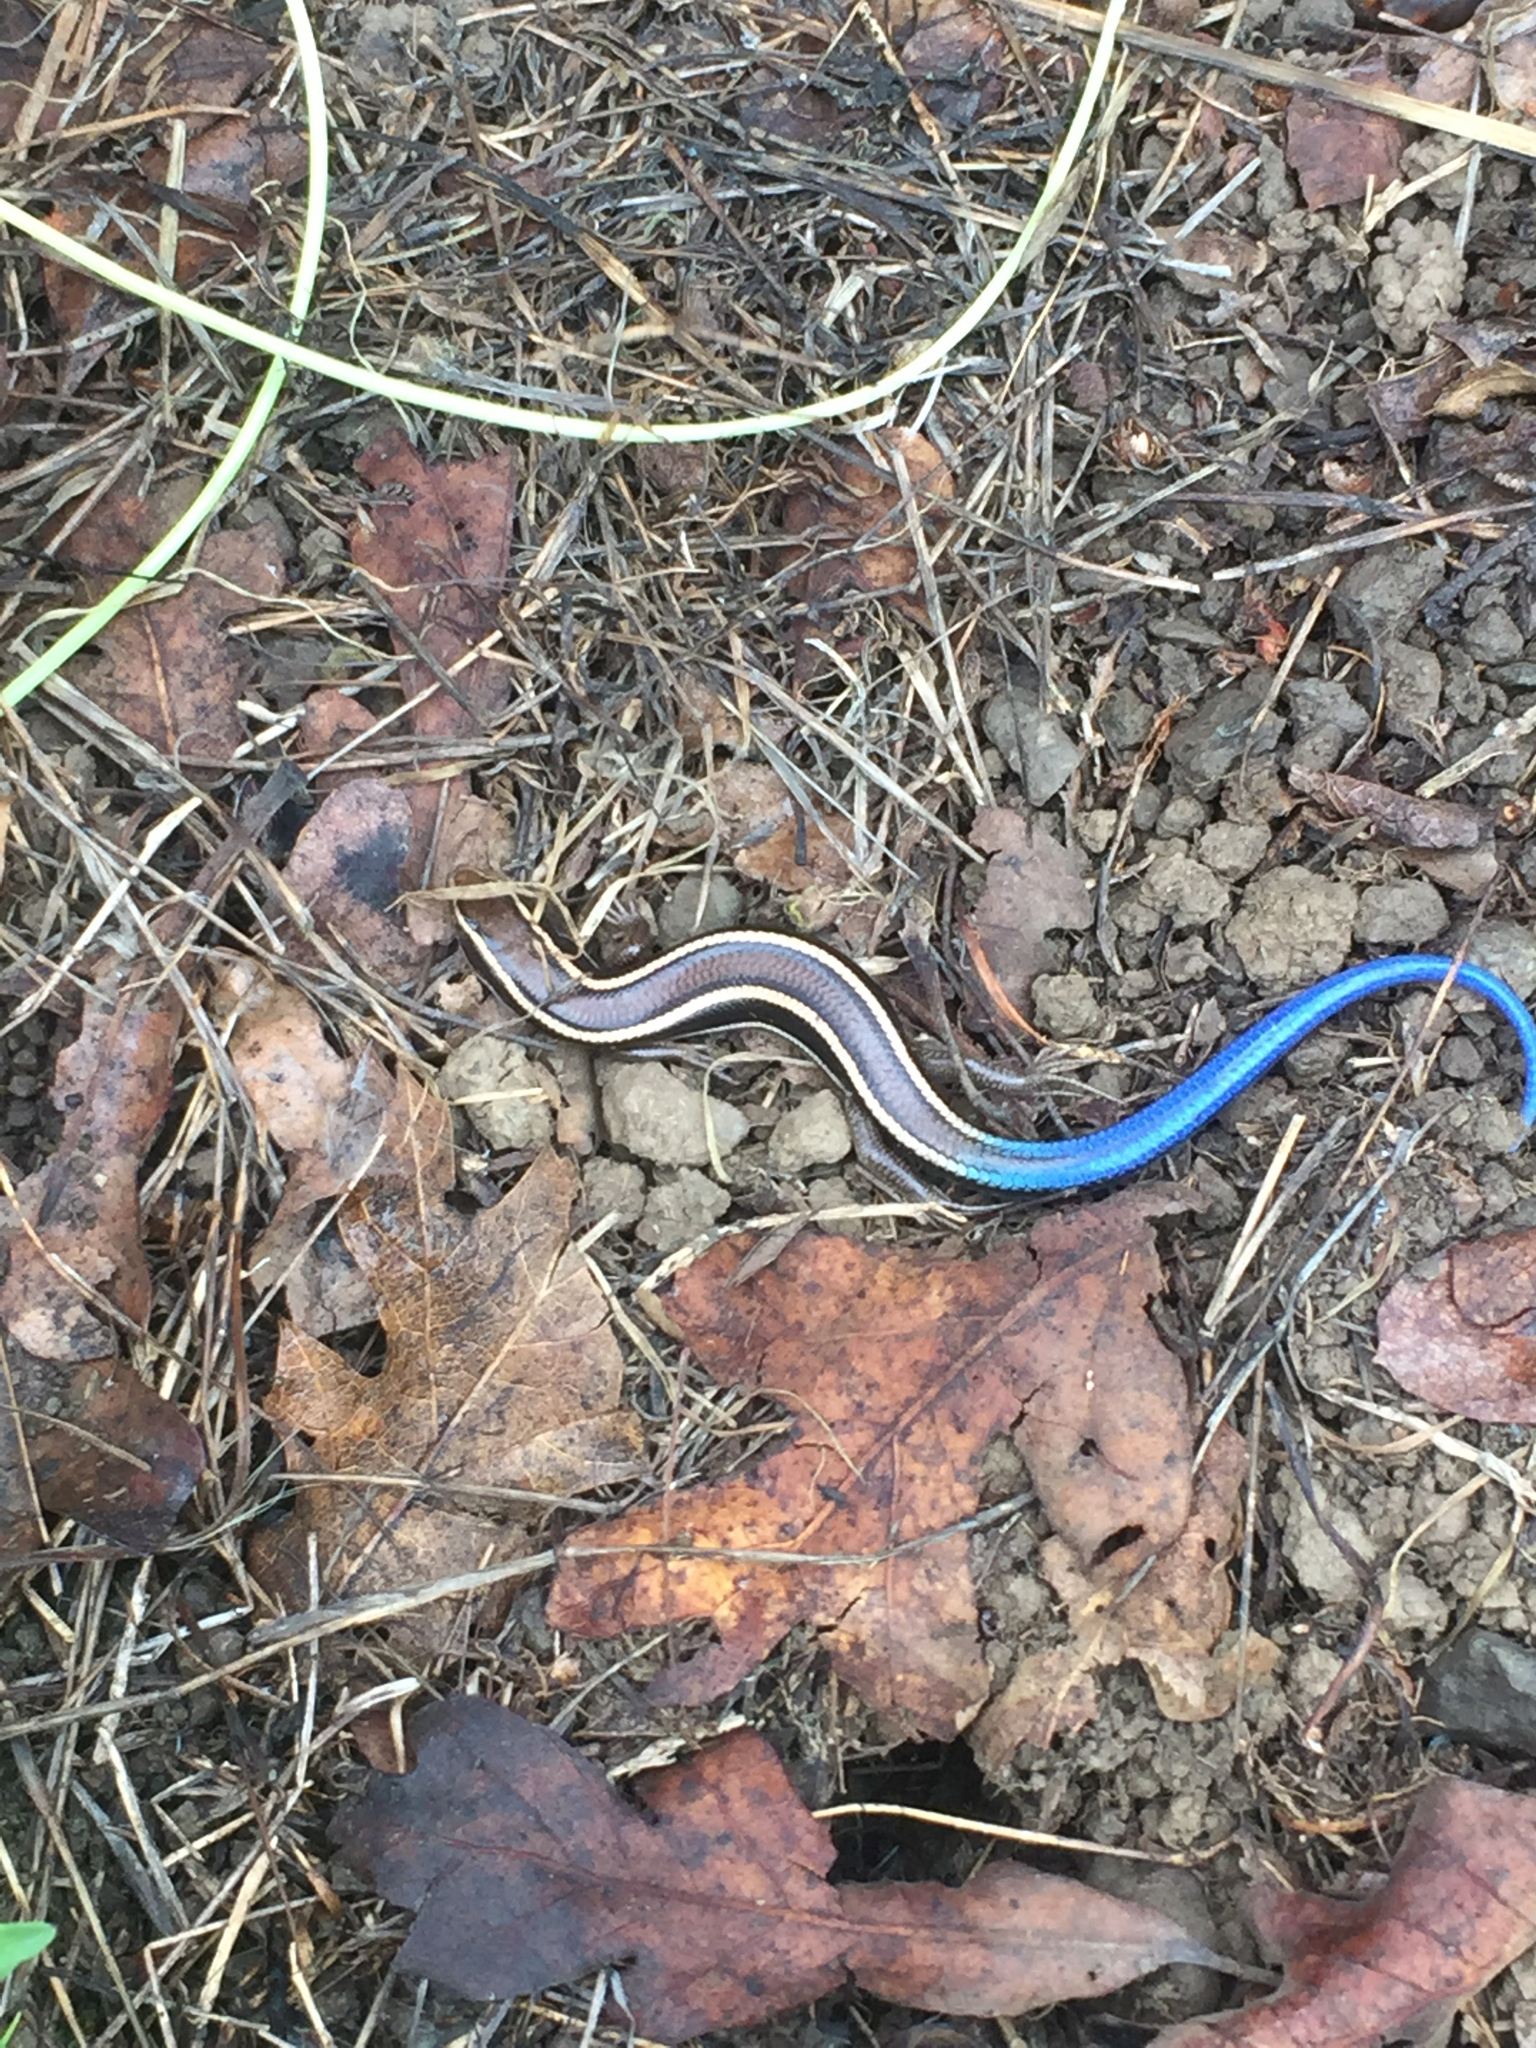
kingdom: Animalia
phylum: Chordata
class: Squamata
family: Scincidae
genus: Plestiodon
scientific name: Plestiodon skiltonianus
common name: Coronado island skink [interparietalis]
